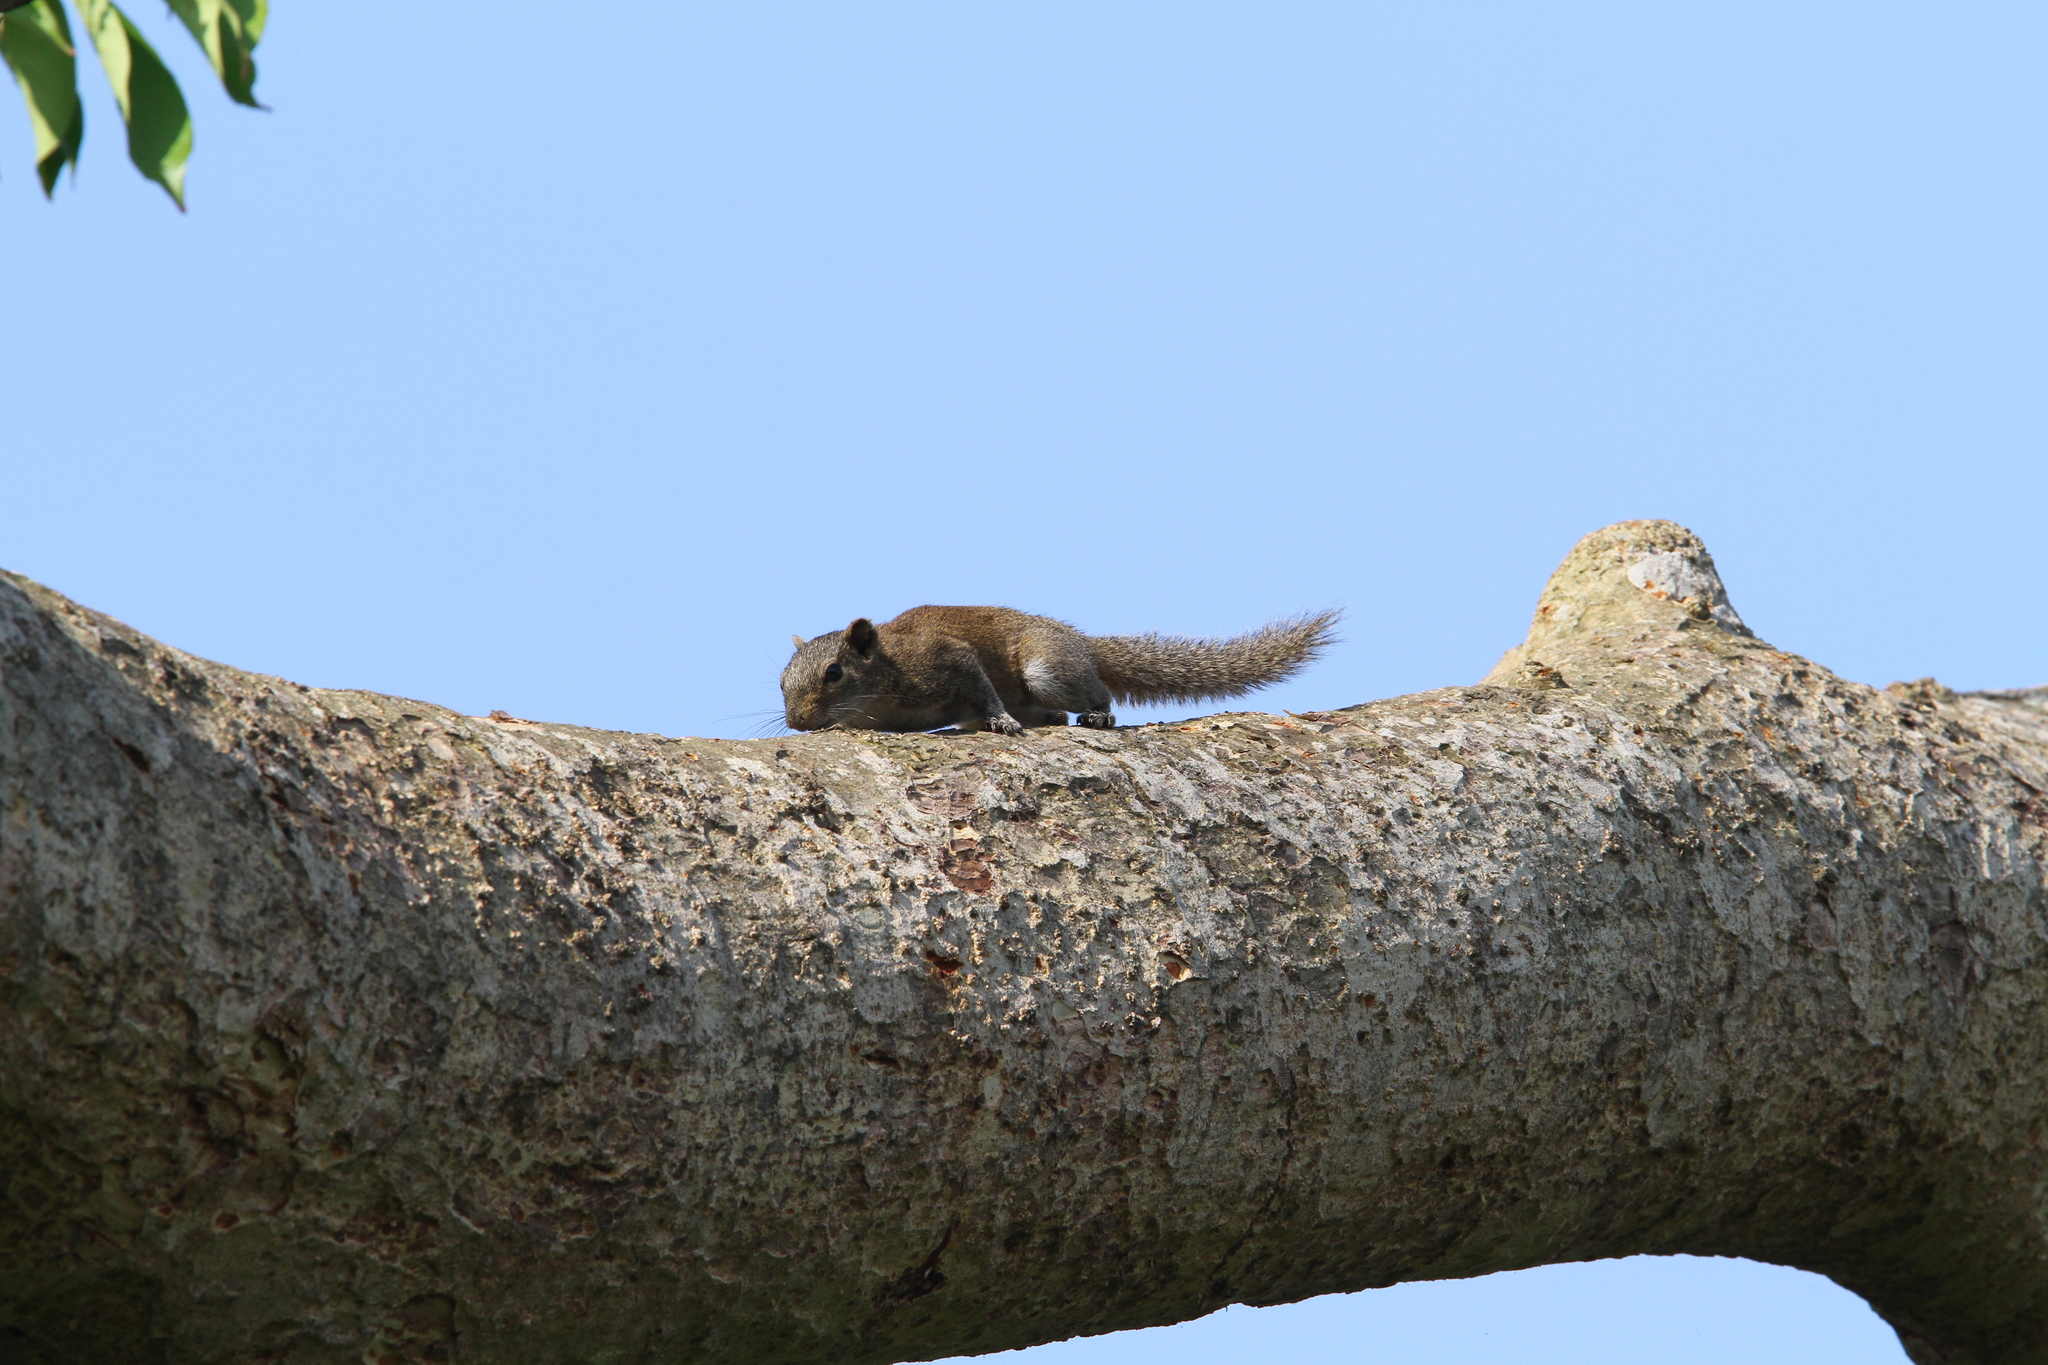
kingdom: Animalia
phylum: Chordata
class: Mammalia
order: Rodentia
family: Sciuridae
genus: Callosciurus
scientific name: Callosciurus pygerythrus
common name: Irrawaddy squirrel
